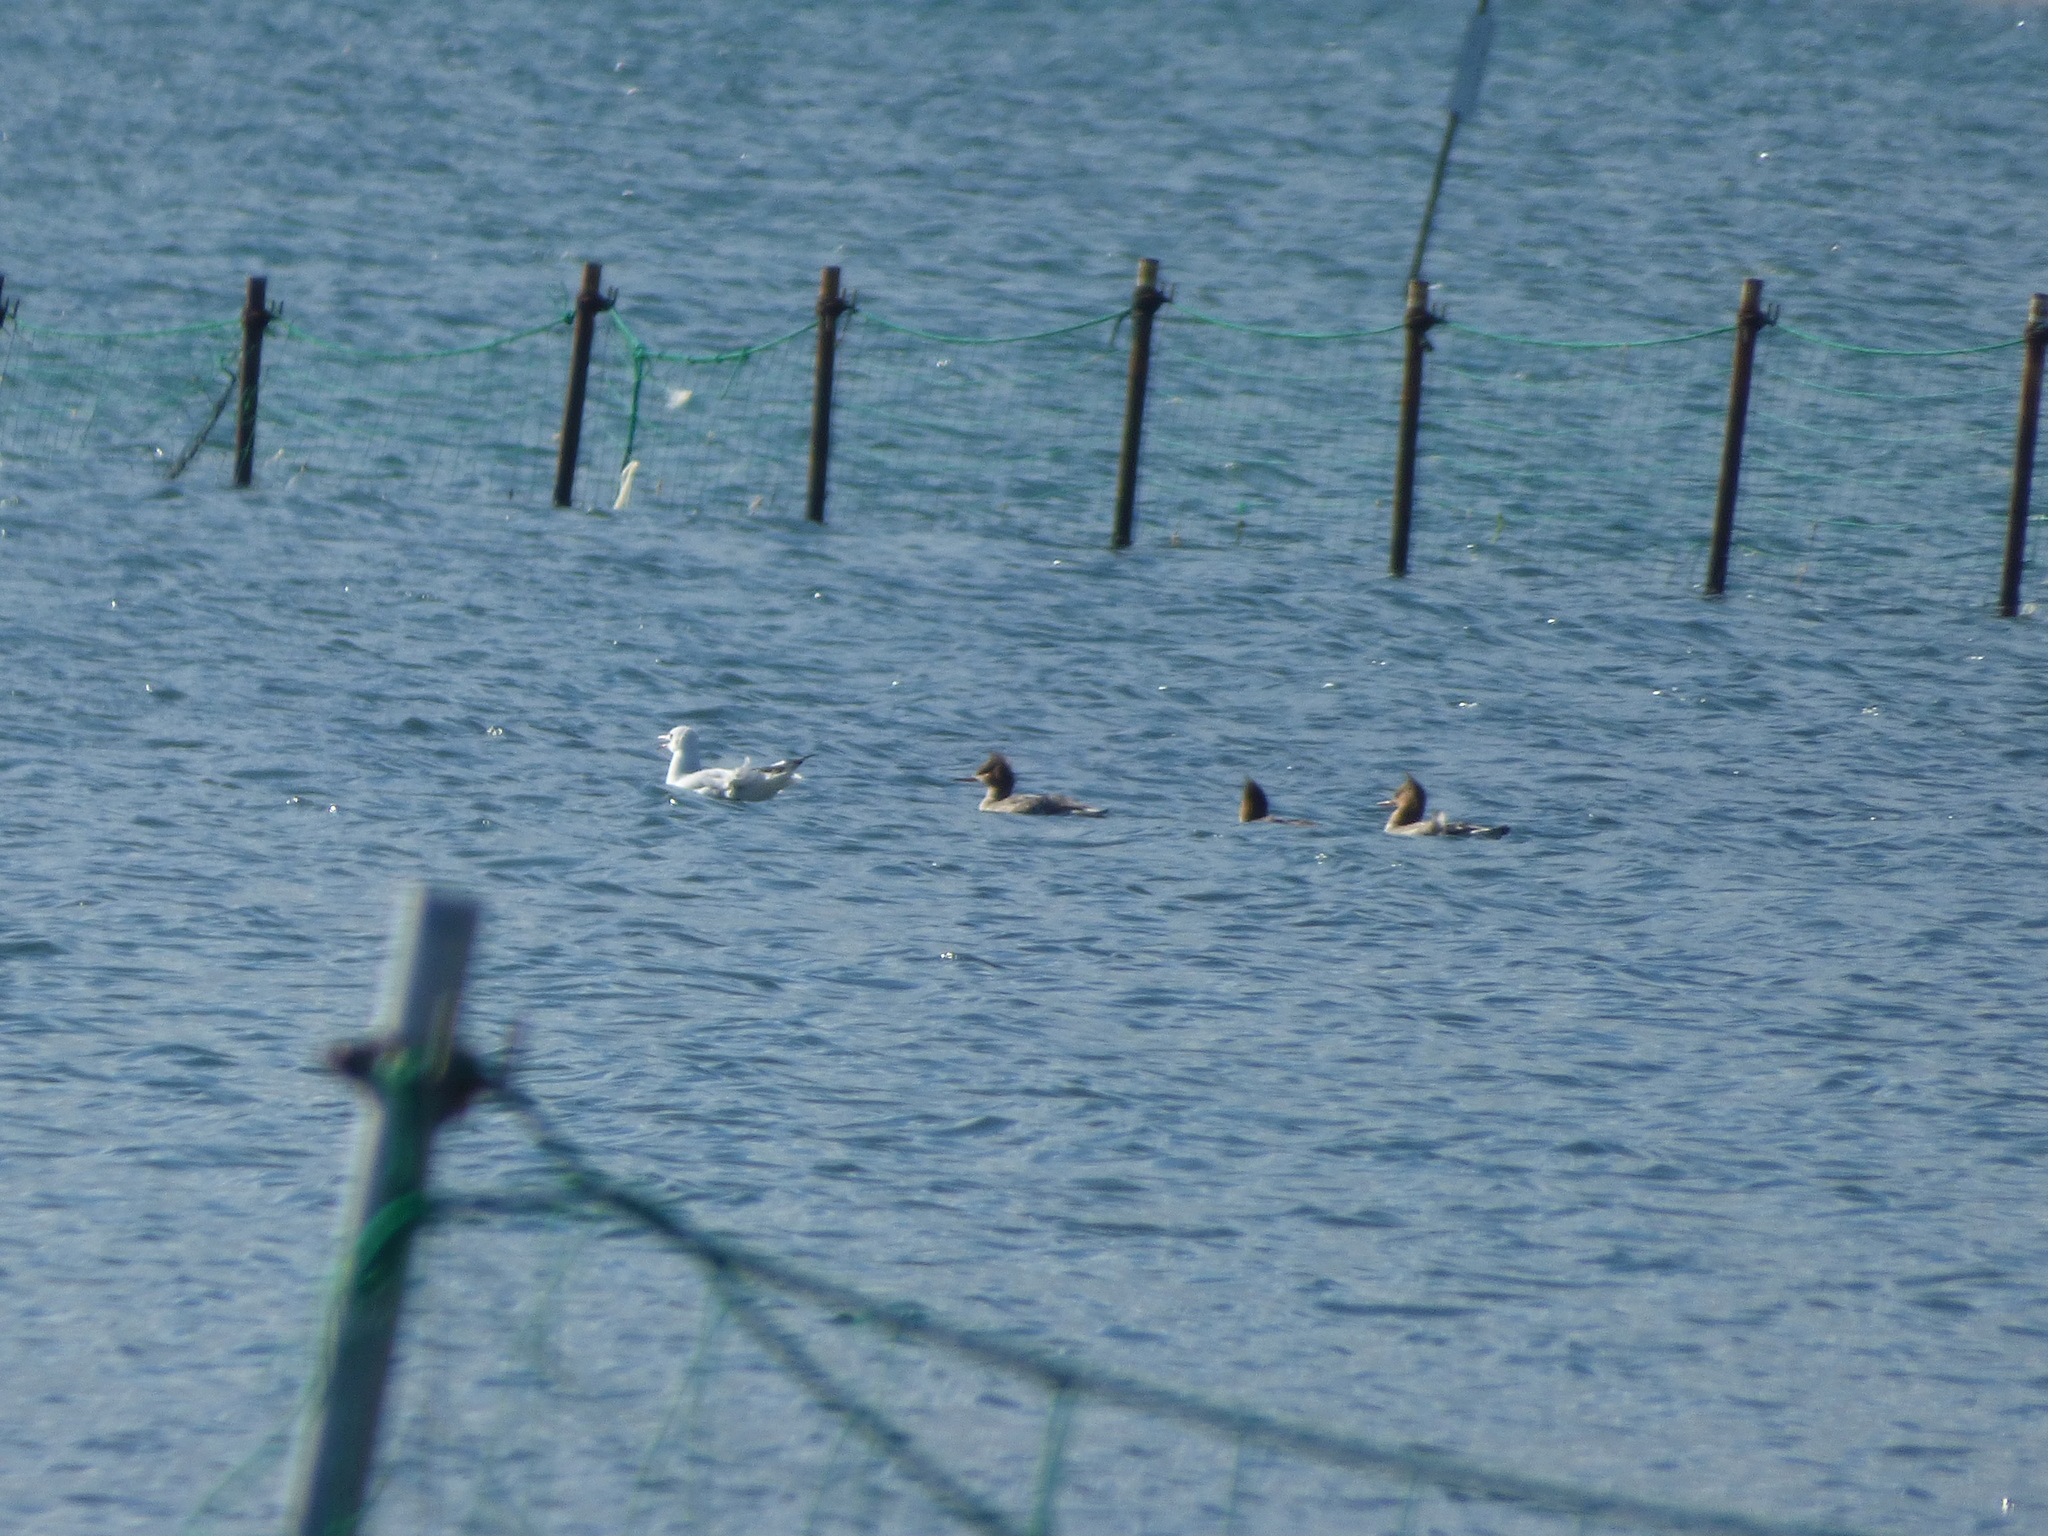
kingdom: Animalia
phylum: Chordata
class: Aves
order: Anseriformes
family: Anatidae
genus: Mergus
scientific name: Mergus serrator
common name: Red-breasted merganser
